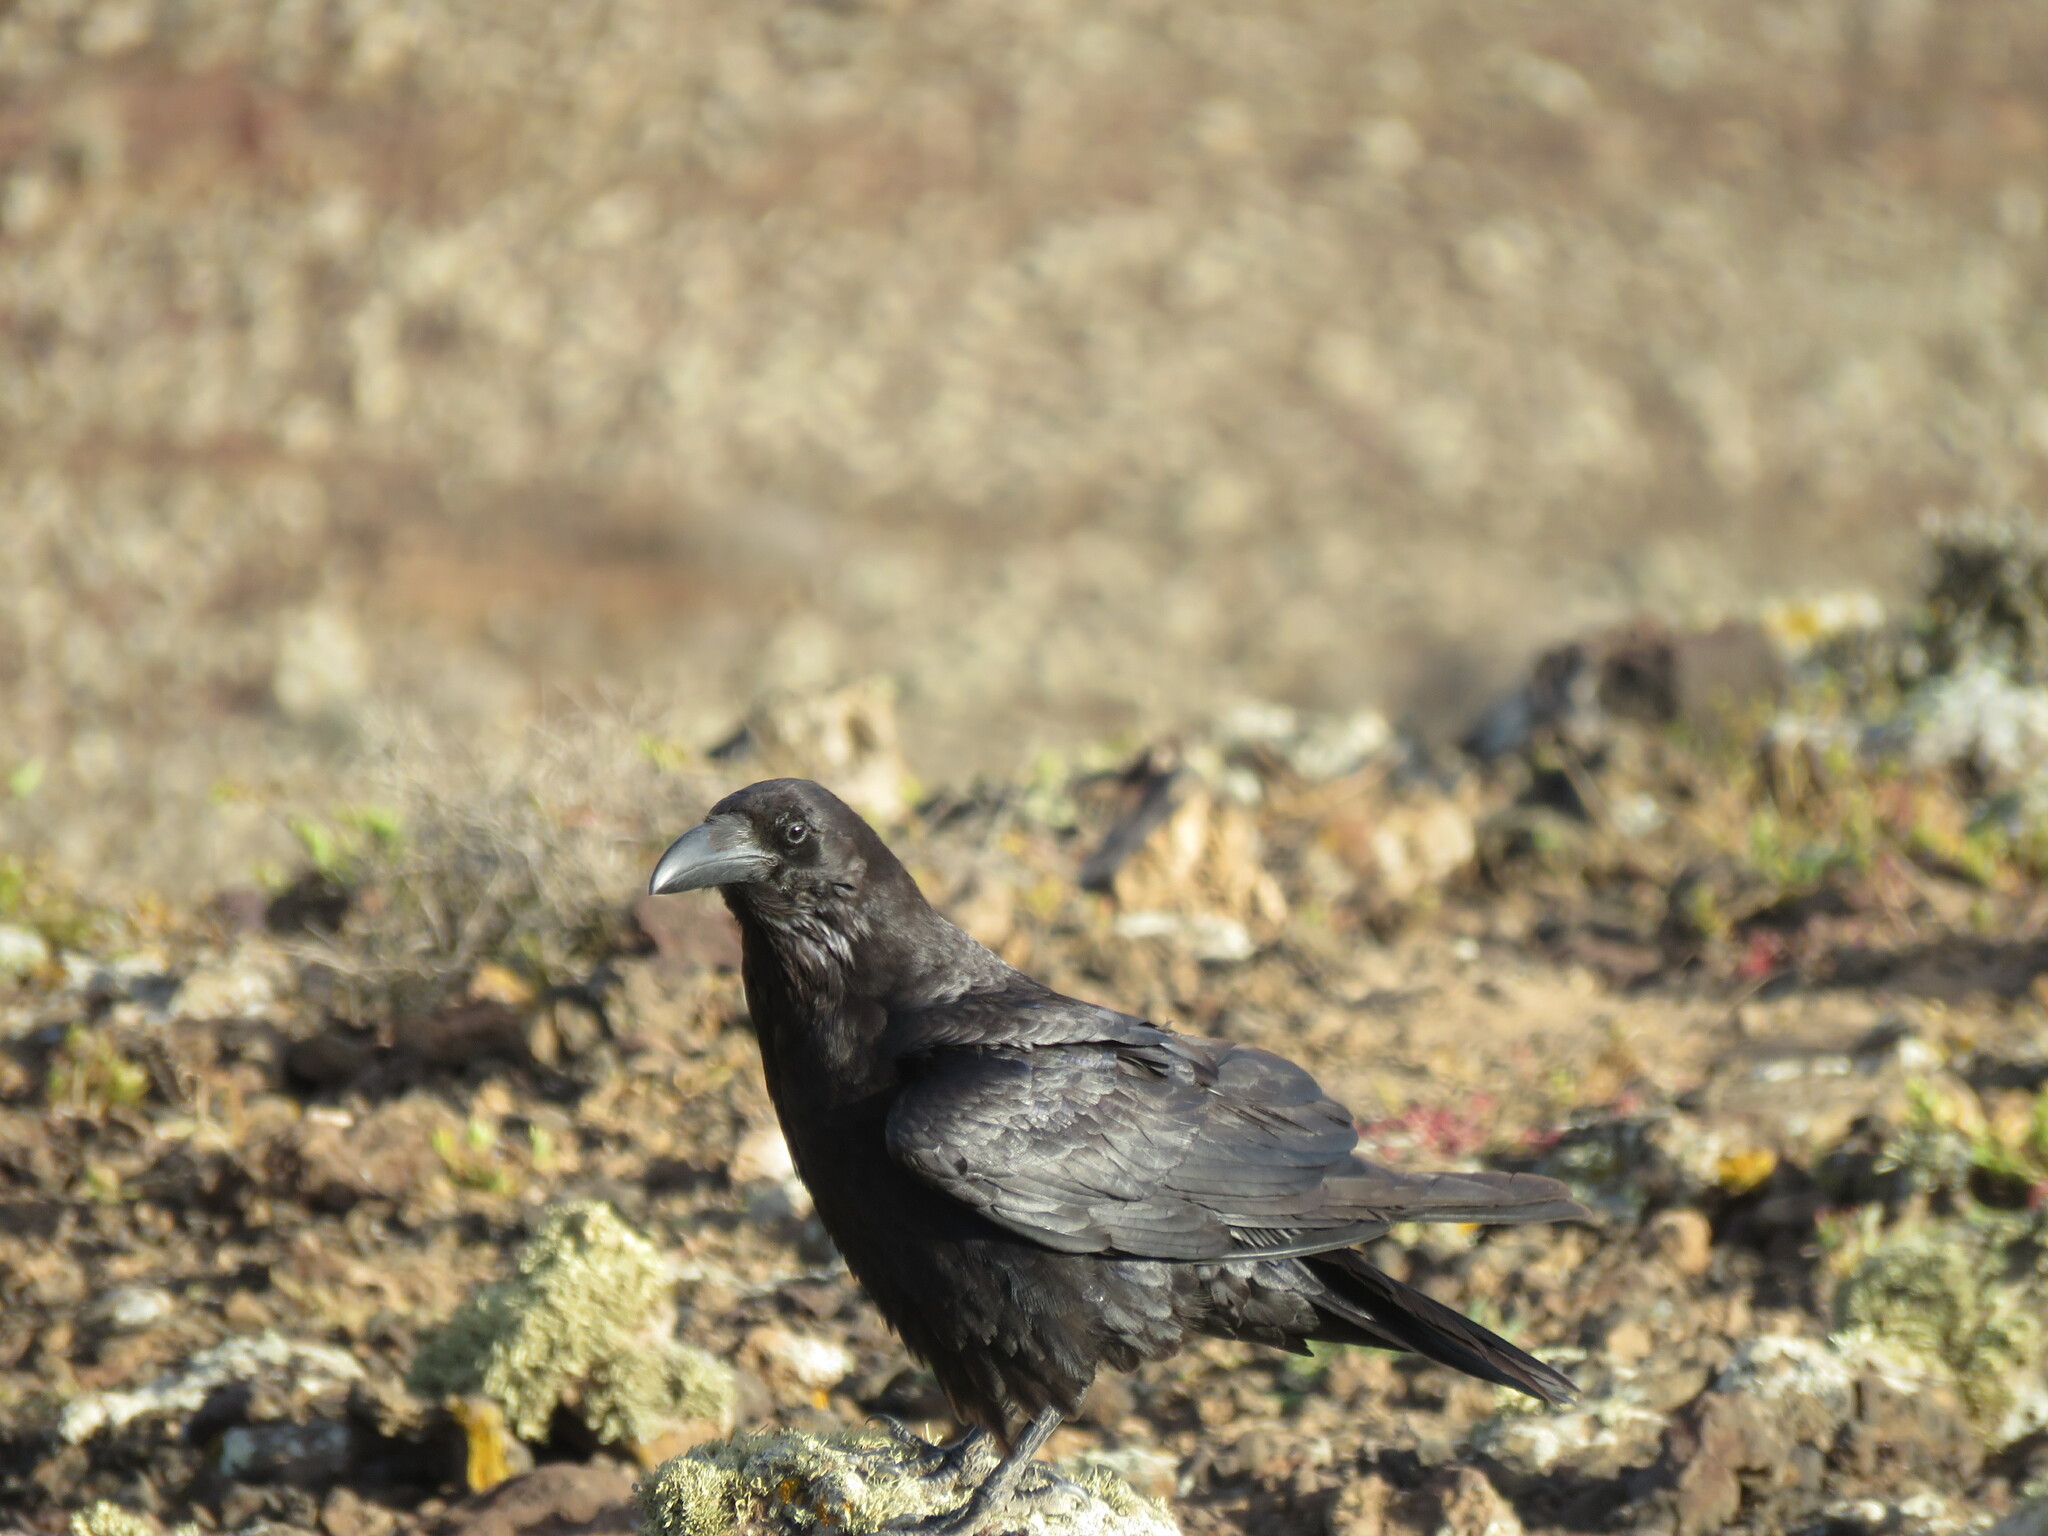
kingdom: Animalia
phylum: Chordata
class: Aves
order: Passeriformes
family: Corvidae
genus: Corvus
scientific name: Corvus corax
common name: Common raven
